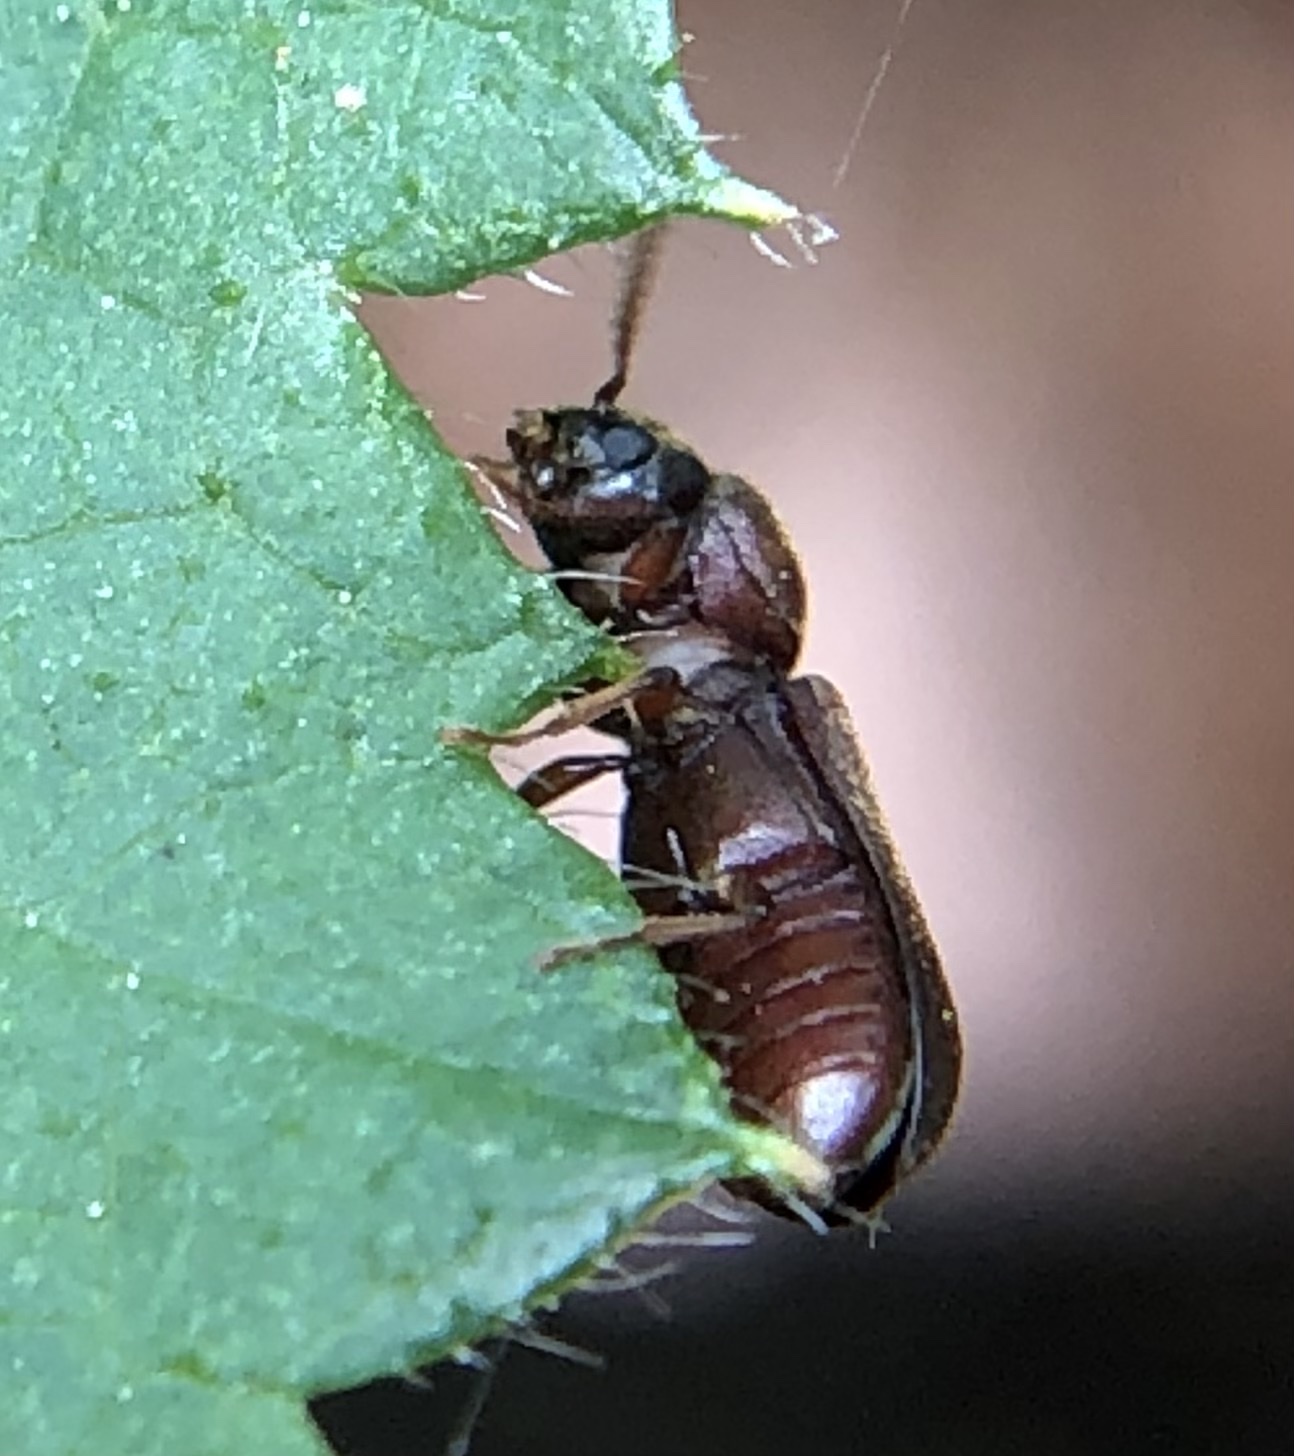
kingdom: Animalia
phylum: Arthropoda
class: Insecta
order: Coleoptera
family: Anobiidae
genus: Ptilinus
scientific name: Ptilinus pectinicornis
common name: Fan-bearing wood-borer
